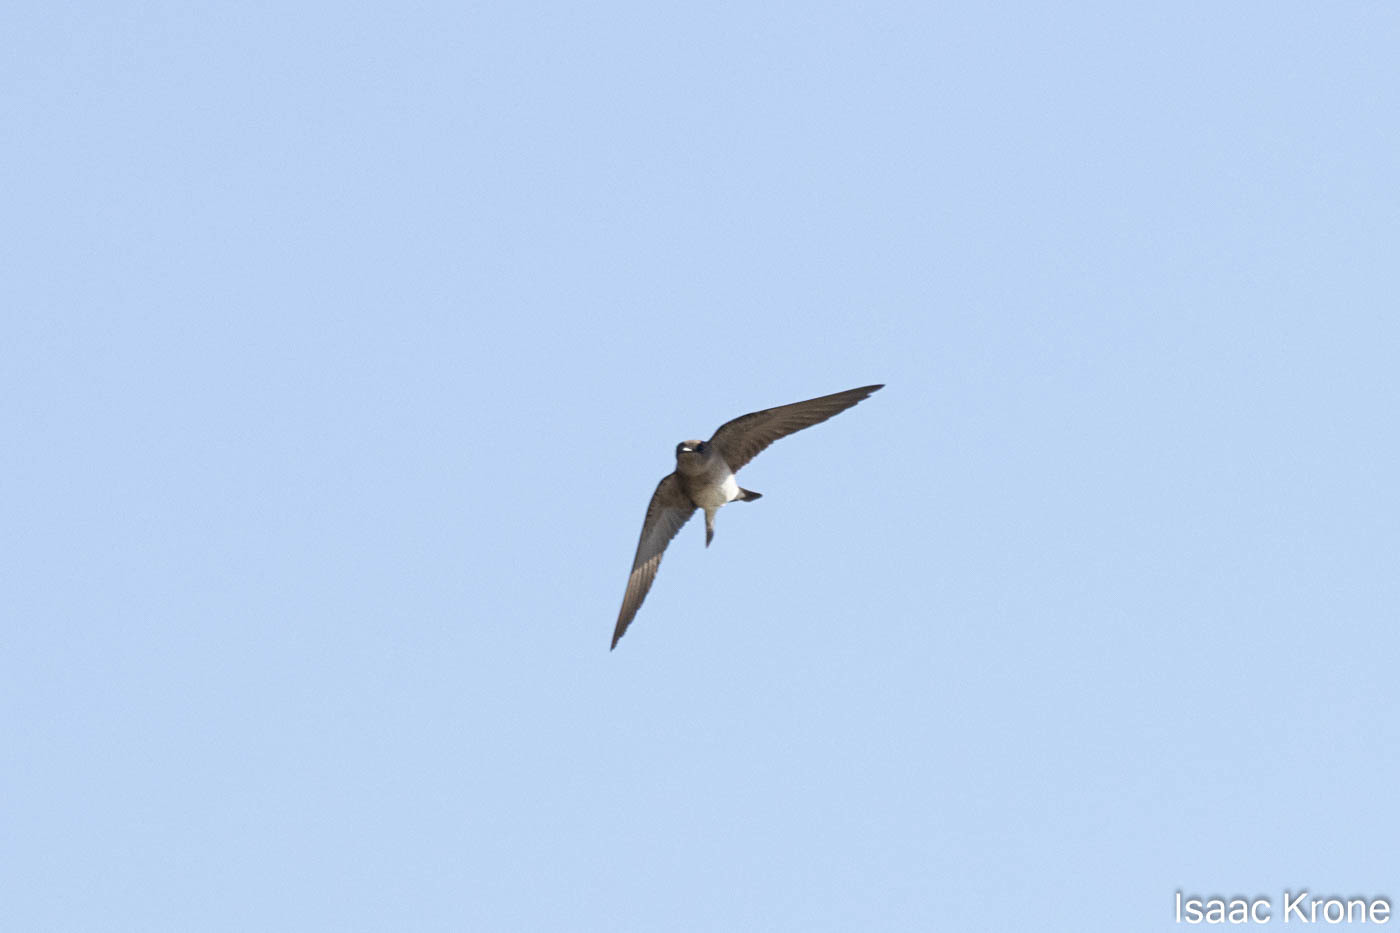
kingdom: Animalia
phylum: Chordata
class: Aves
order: Passeriformes
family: Hirundinidae
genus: Stelgidopteryx
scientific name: Stelgidopteryx serripennis
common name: Northern rough-winged swallow
